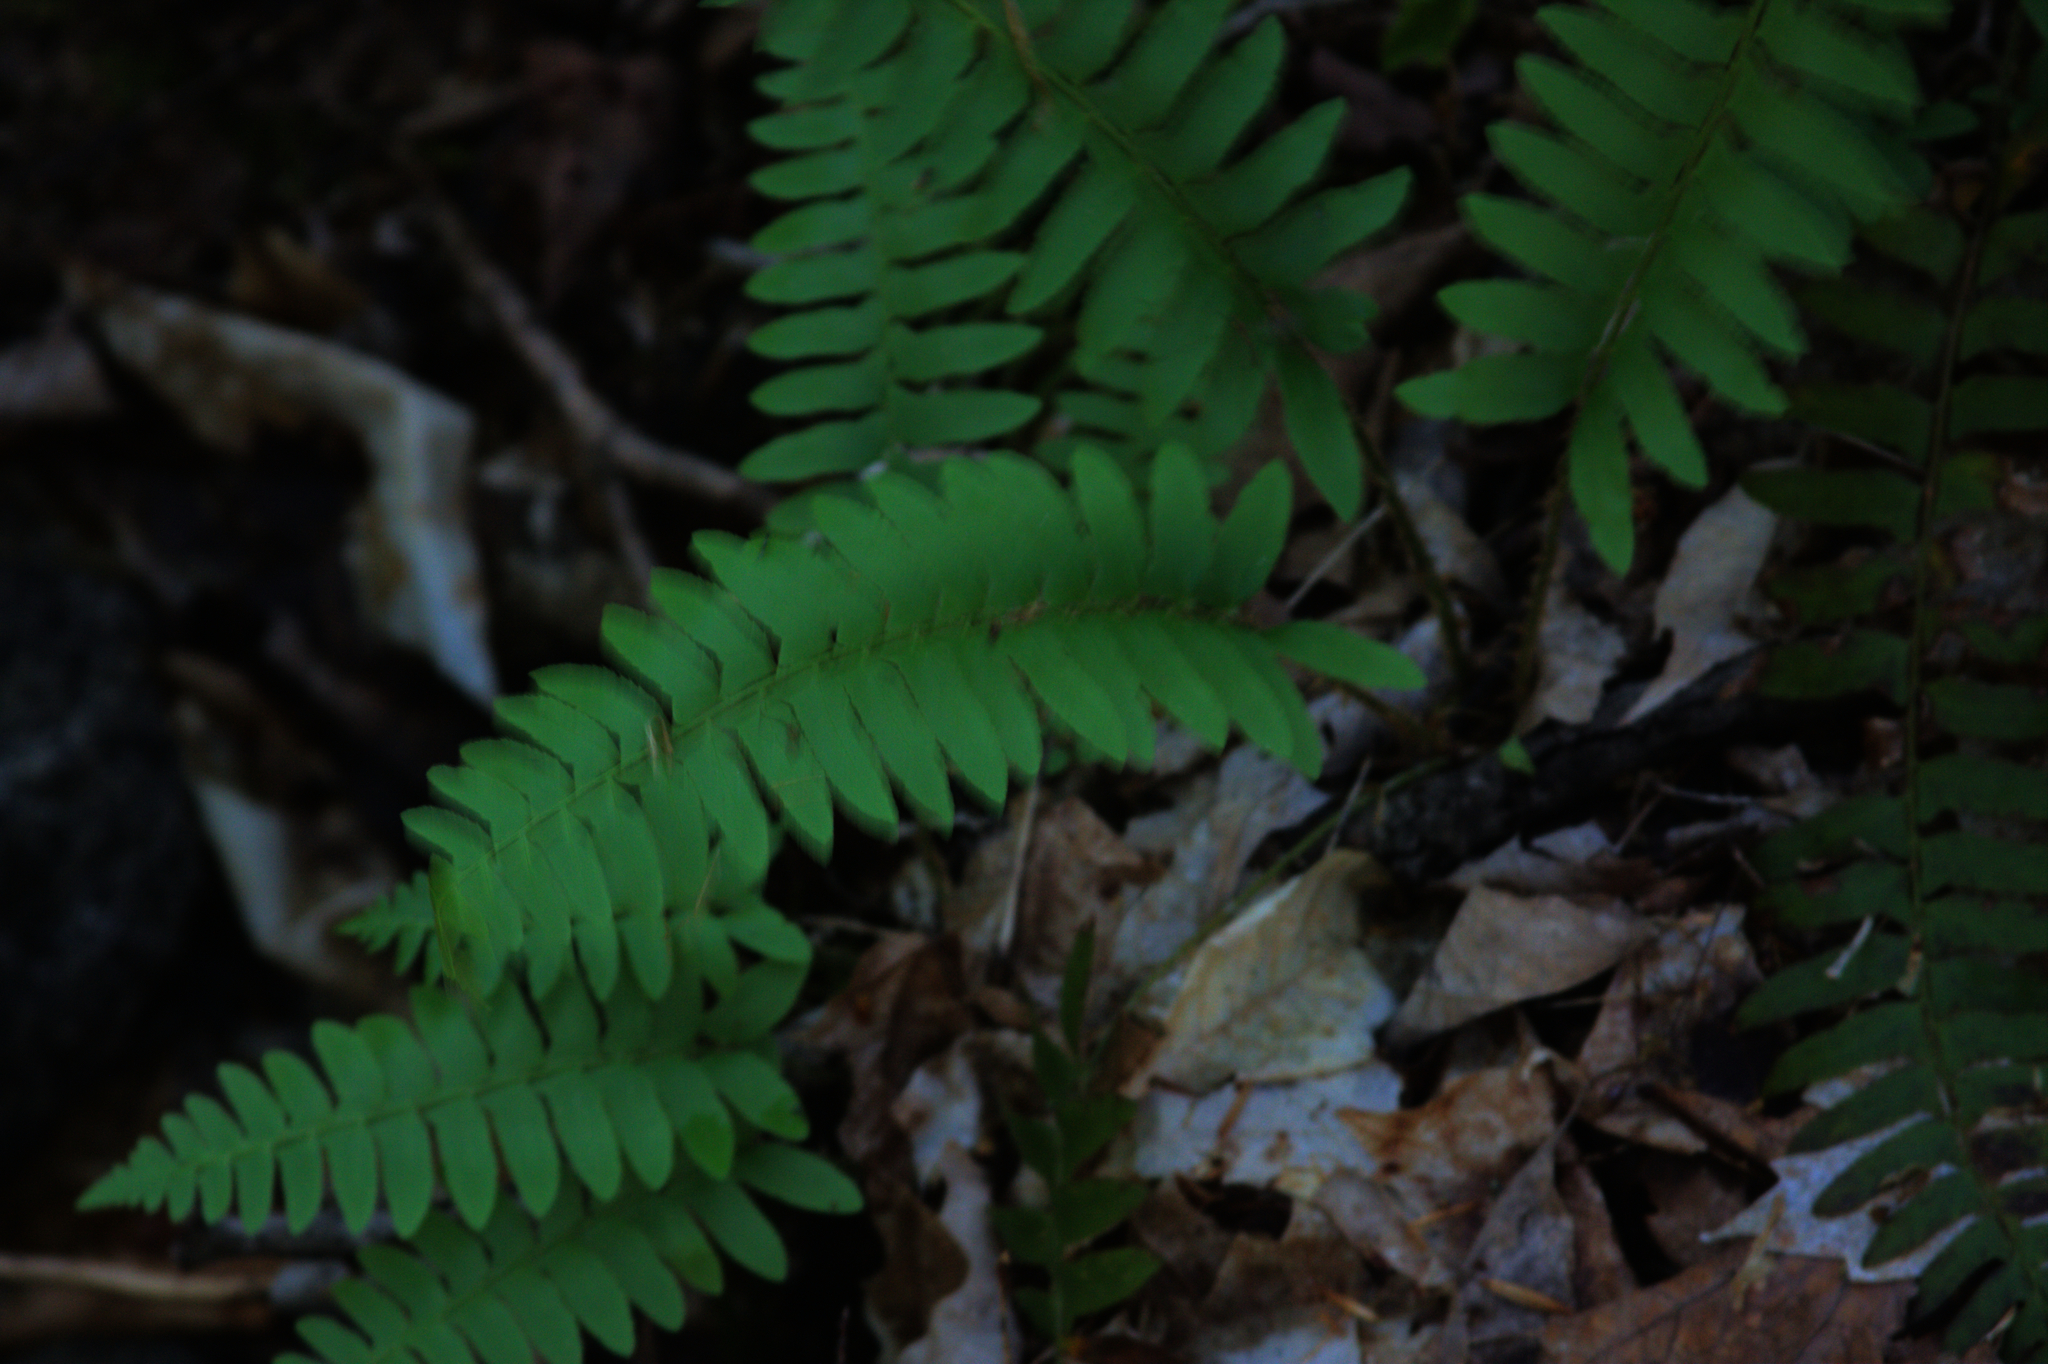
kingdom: Plantae
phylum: Tracheophyta
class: Polypodiopsida
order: Polypodiales
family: Dryopteridaceae
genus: Polystichum
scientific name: Polystichum acrostichoides
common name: Christmas fern
